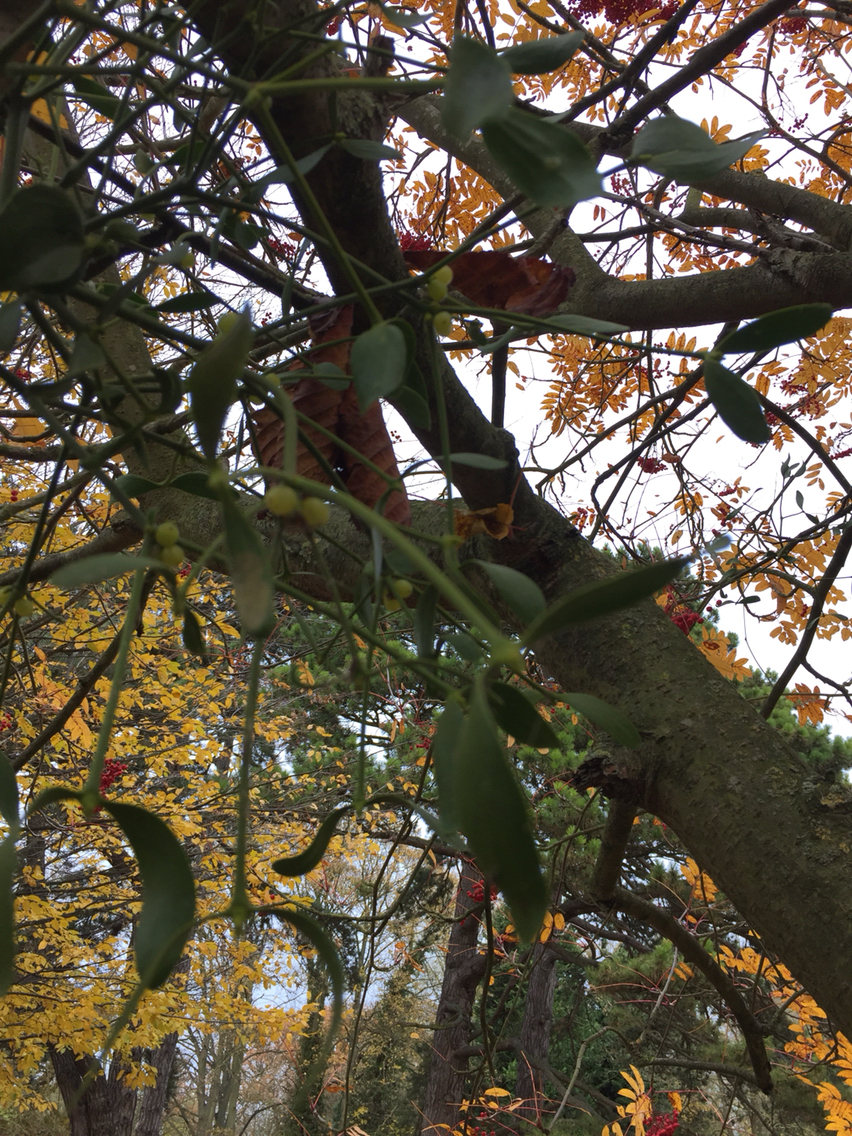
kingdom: Plantae
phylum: Tracheophyta
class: Magnoliopsida
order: Santalales
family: Viscaceae
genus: Viscum
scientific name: Viscum album
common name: Mistletoe
